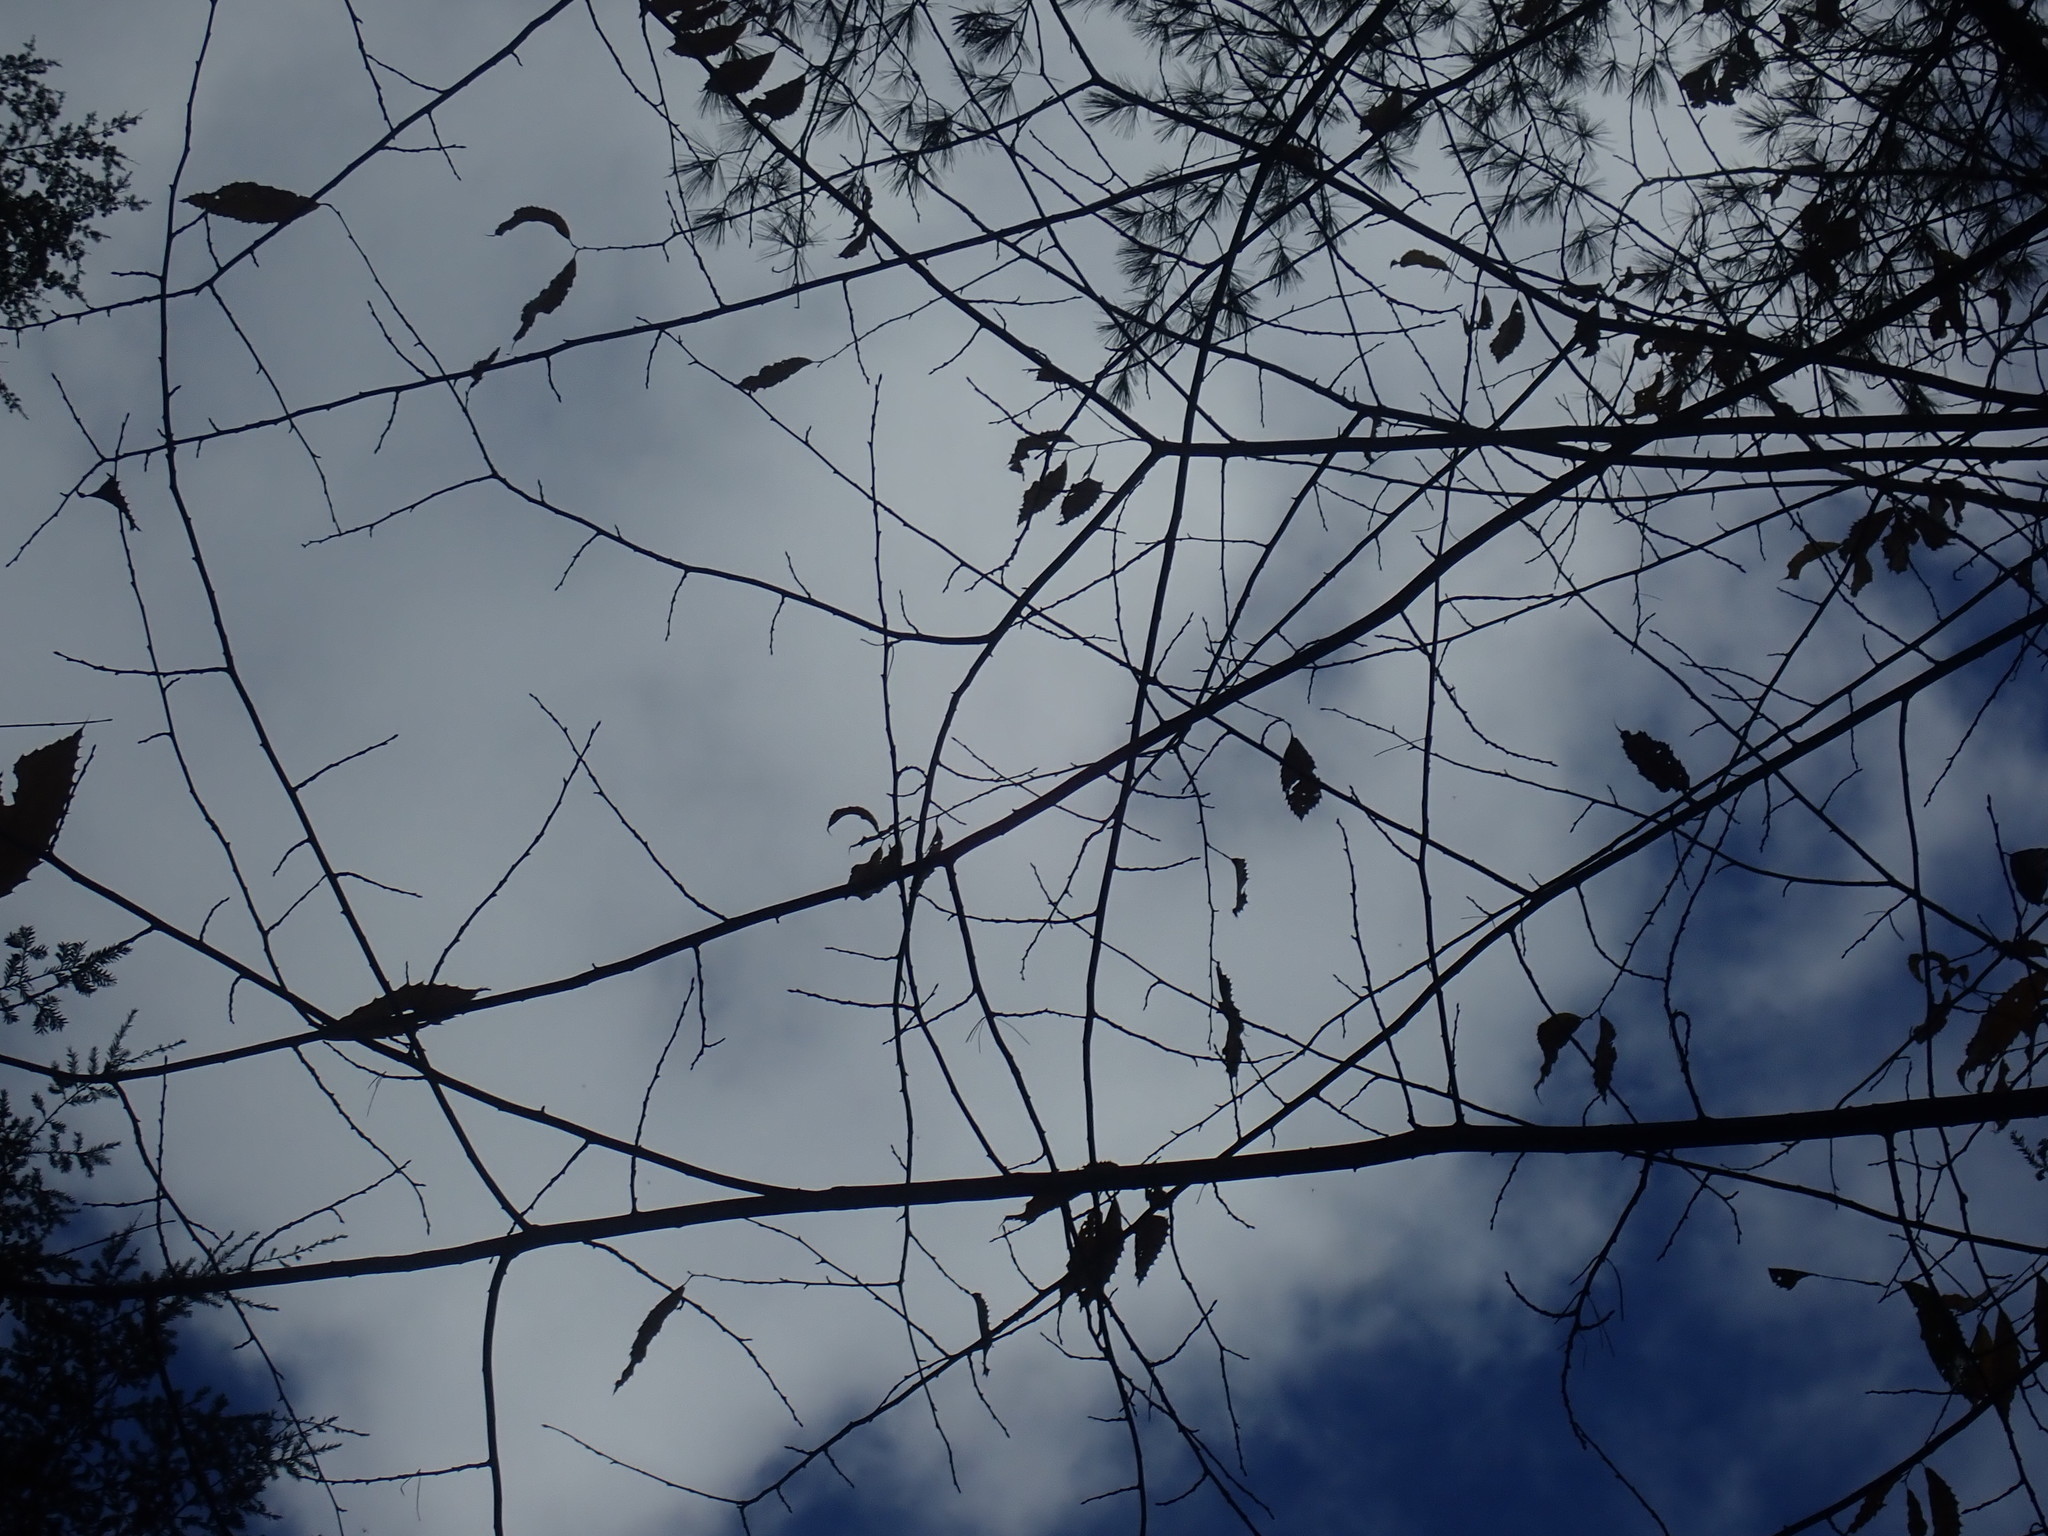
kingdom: Plantae
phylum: Tracheophyta
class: Magnoliopsida
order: Fagales
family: Fagaceae
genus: Castanea
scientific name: Castanea dentata
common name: American chestnut
